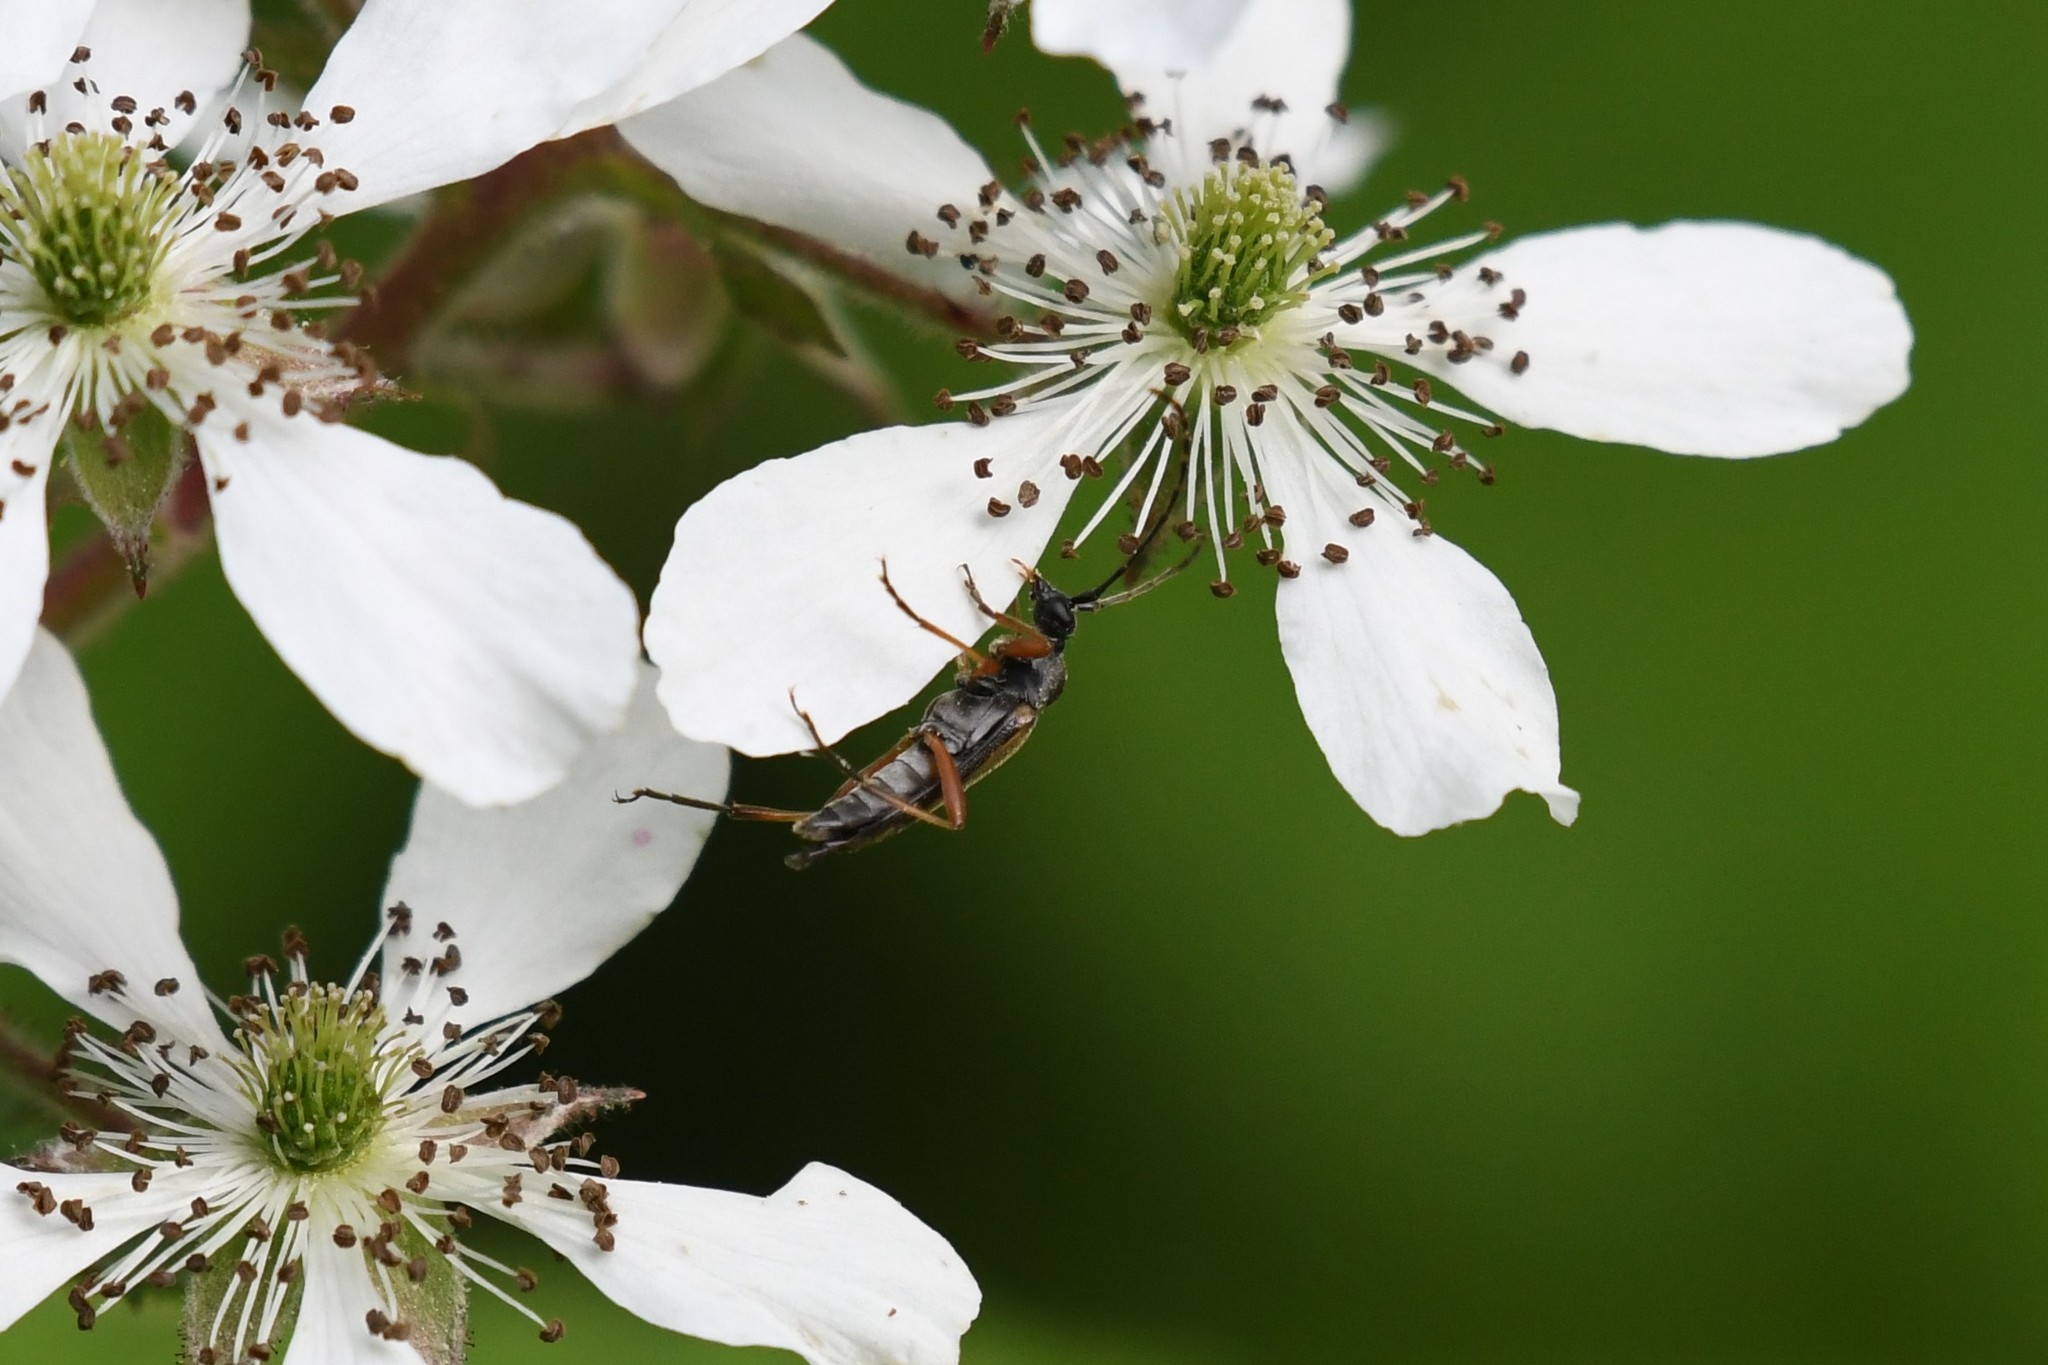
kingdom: Animalia
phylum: Arthropoda
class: Insecta
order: Coleoptera
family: Cerambycidae
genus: Analeptura
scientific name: Analeptura lineola
